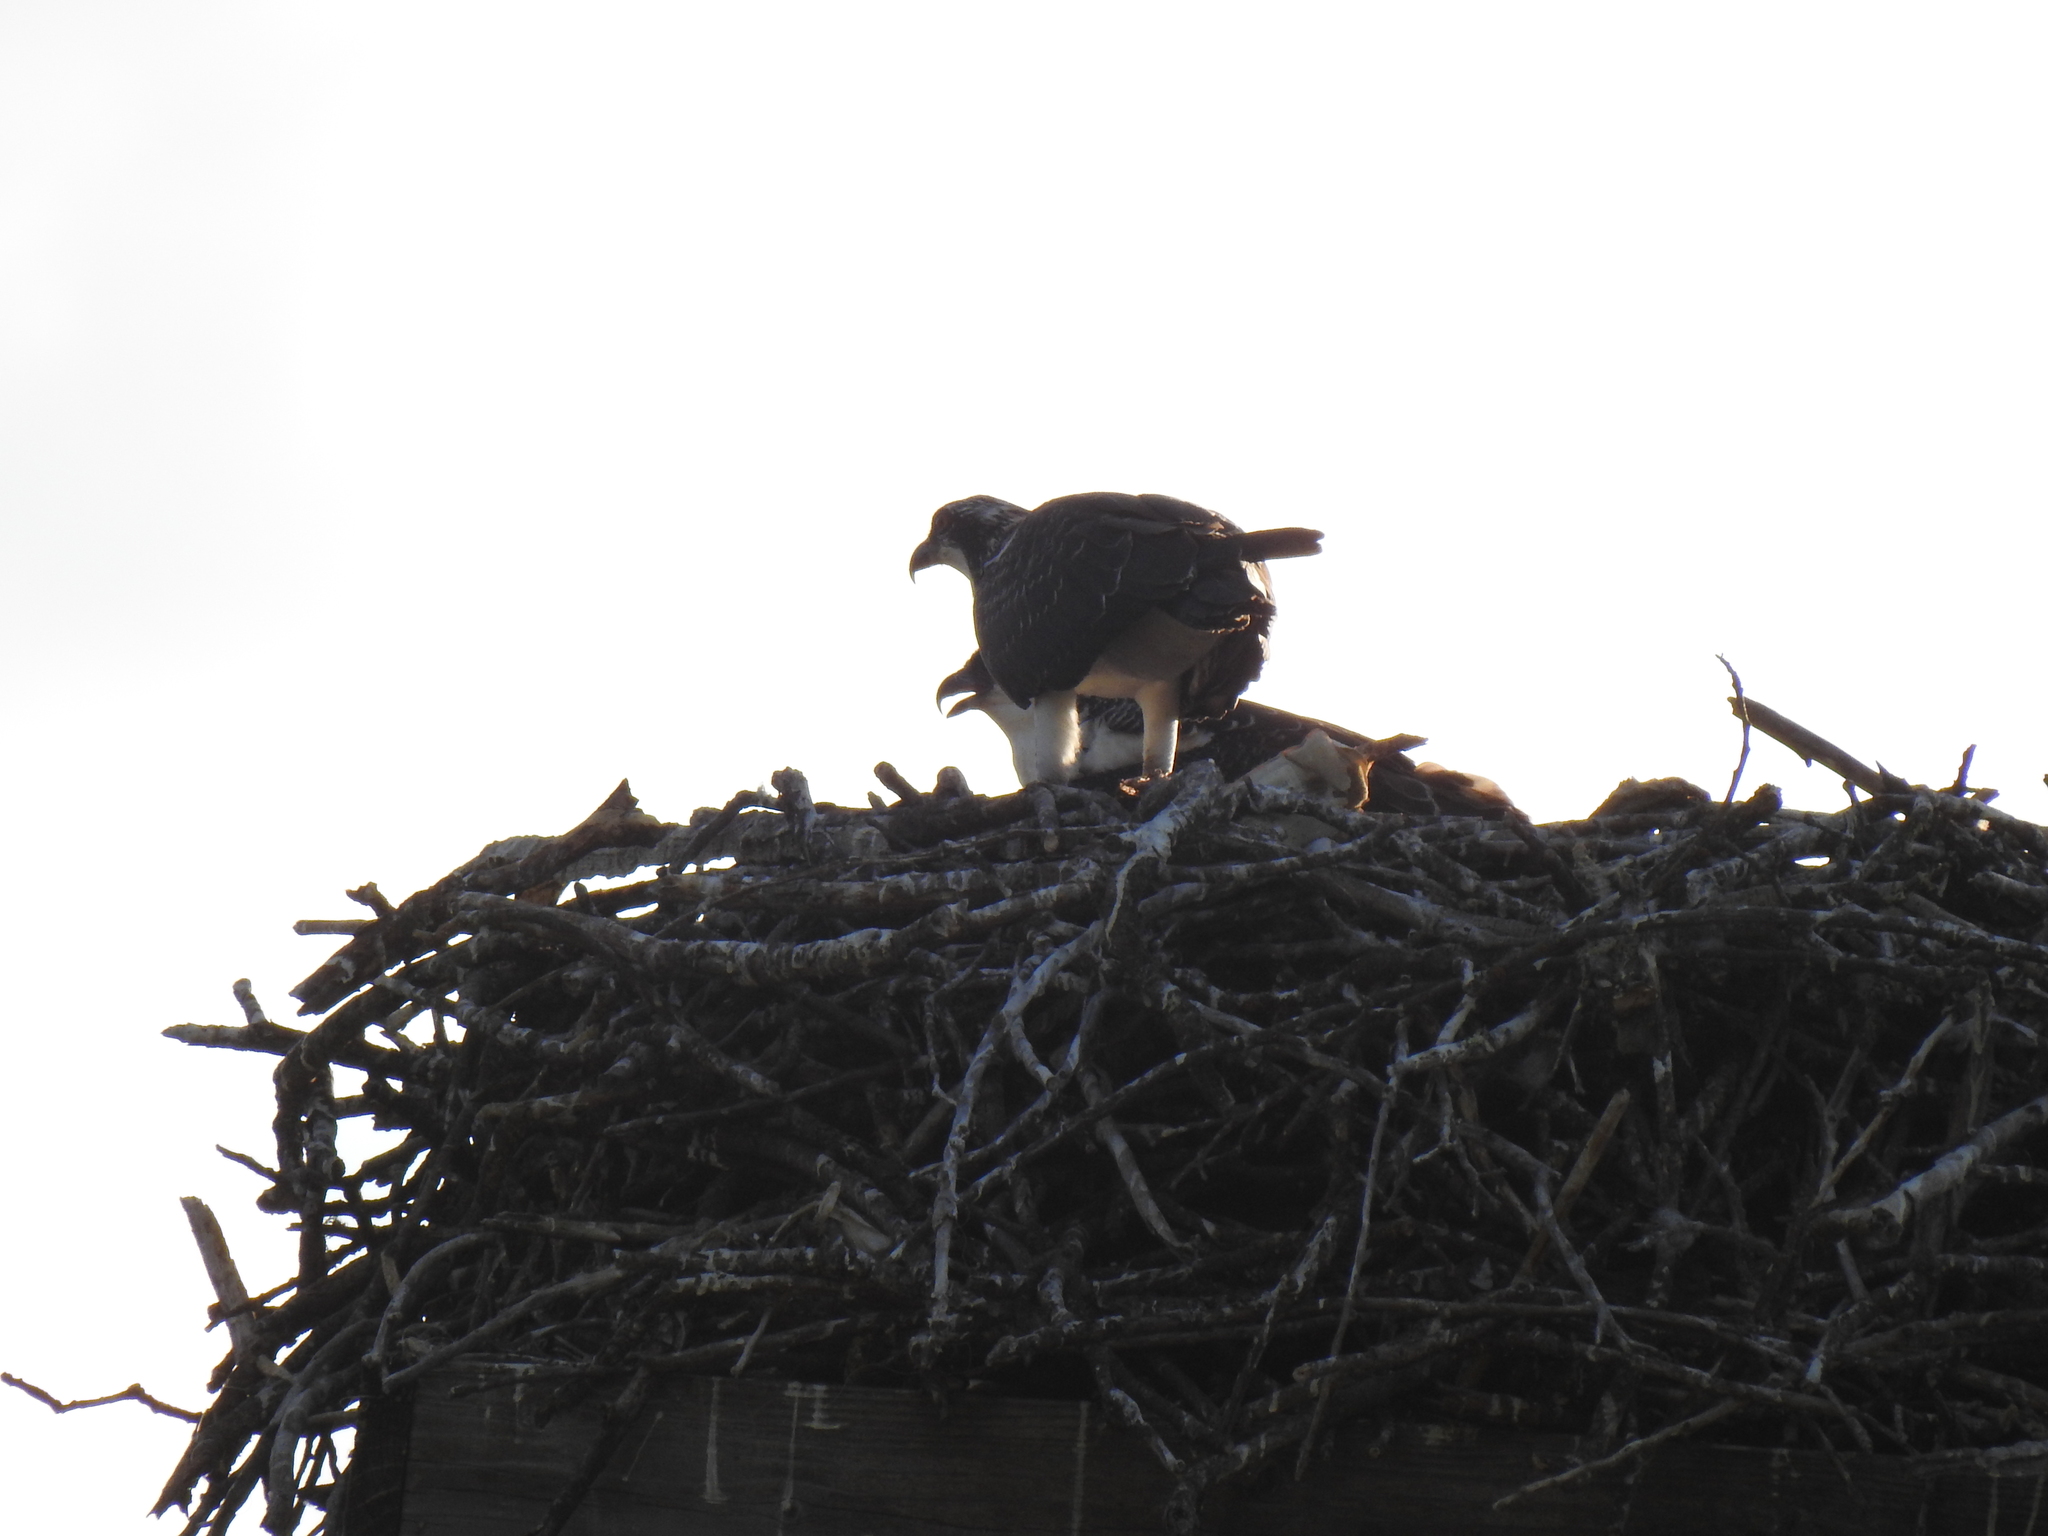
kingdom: Animalia
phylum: Chordata
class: Aves
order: Accipitriformes
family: Pandionidae
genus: Pandion
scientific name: Pandion haliaetus
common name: Osprey
